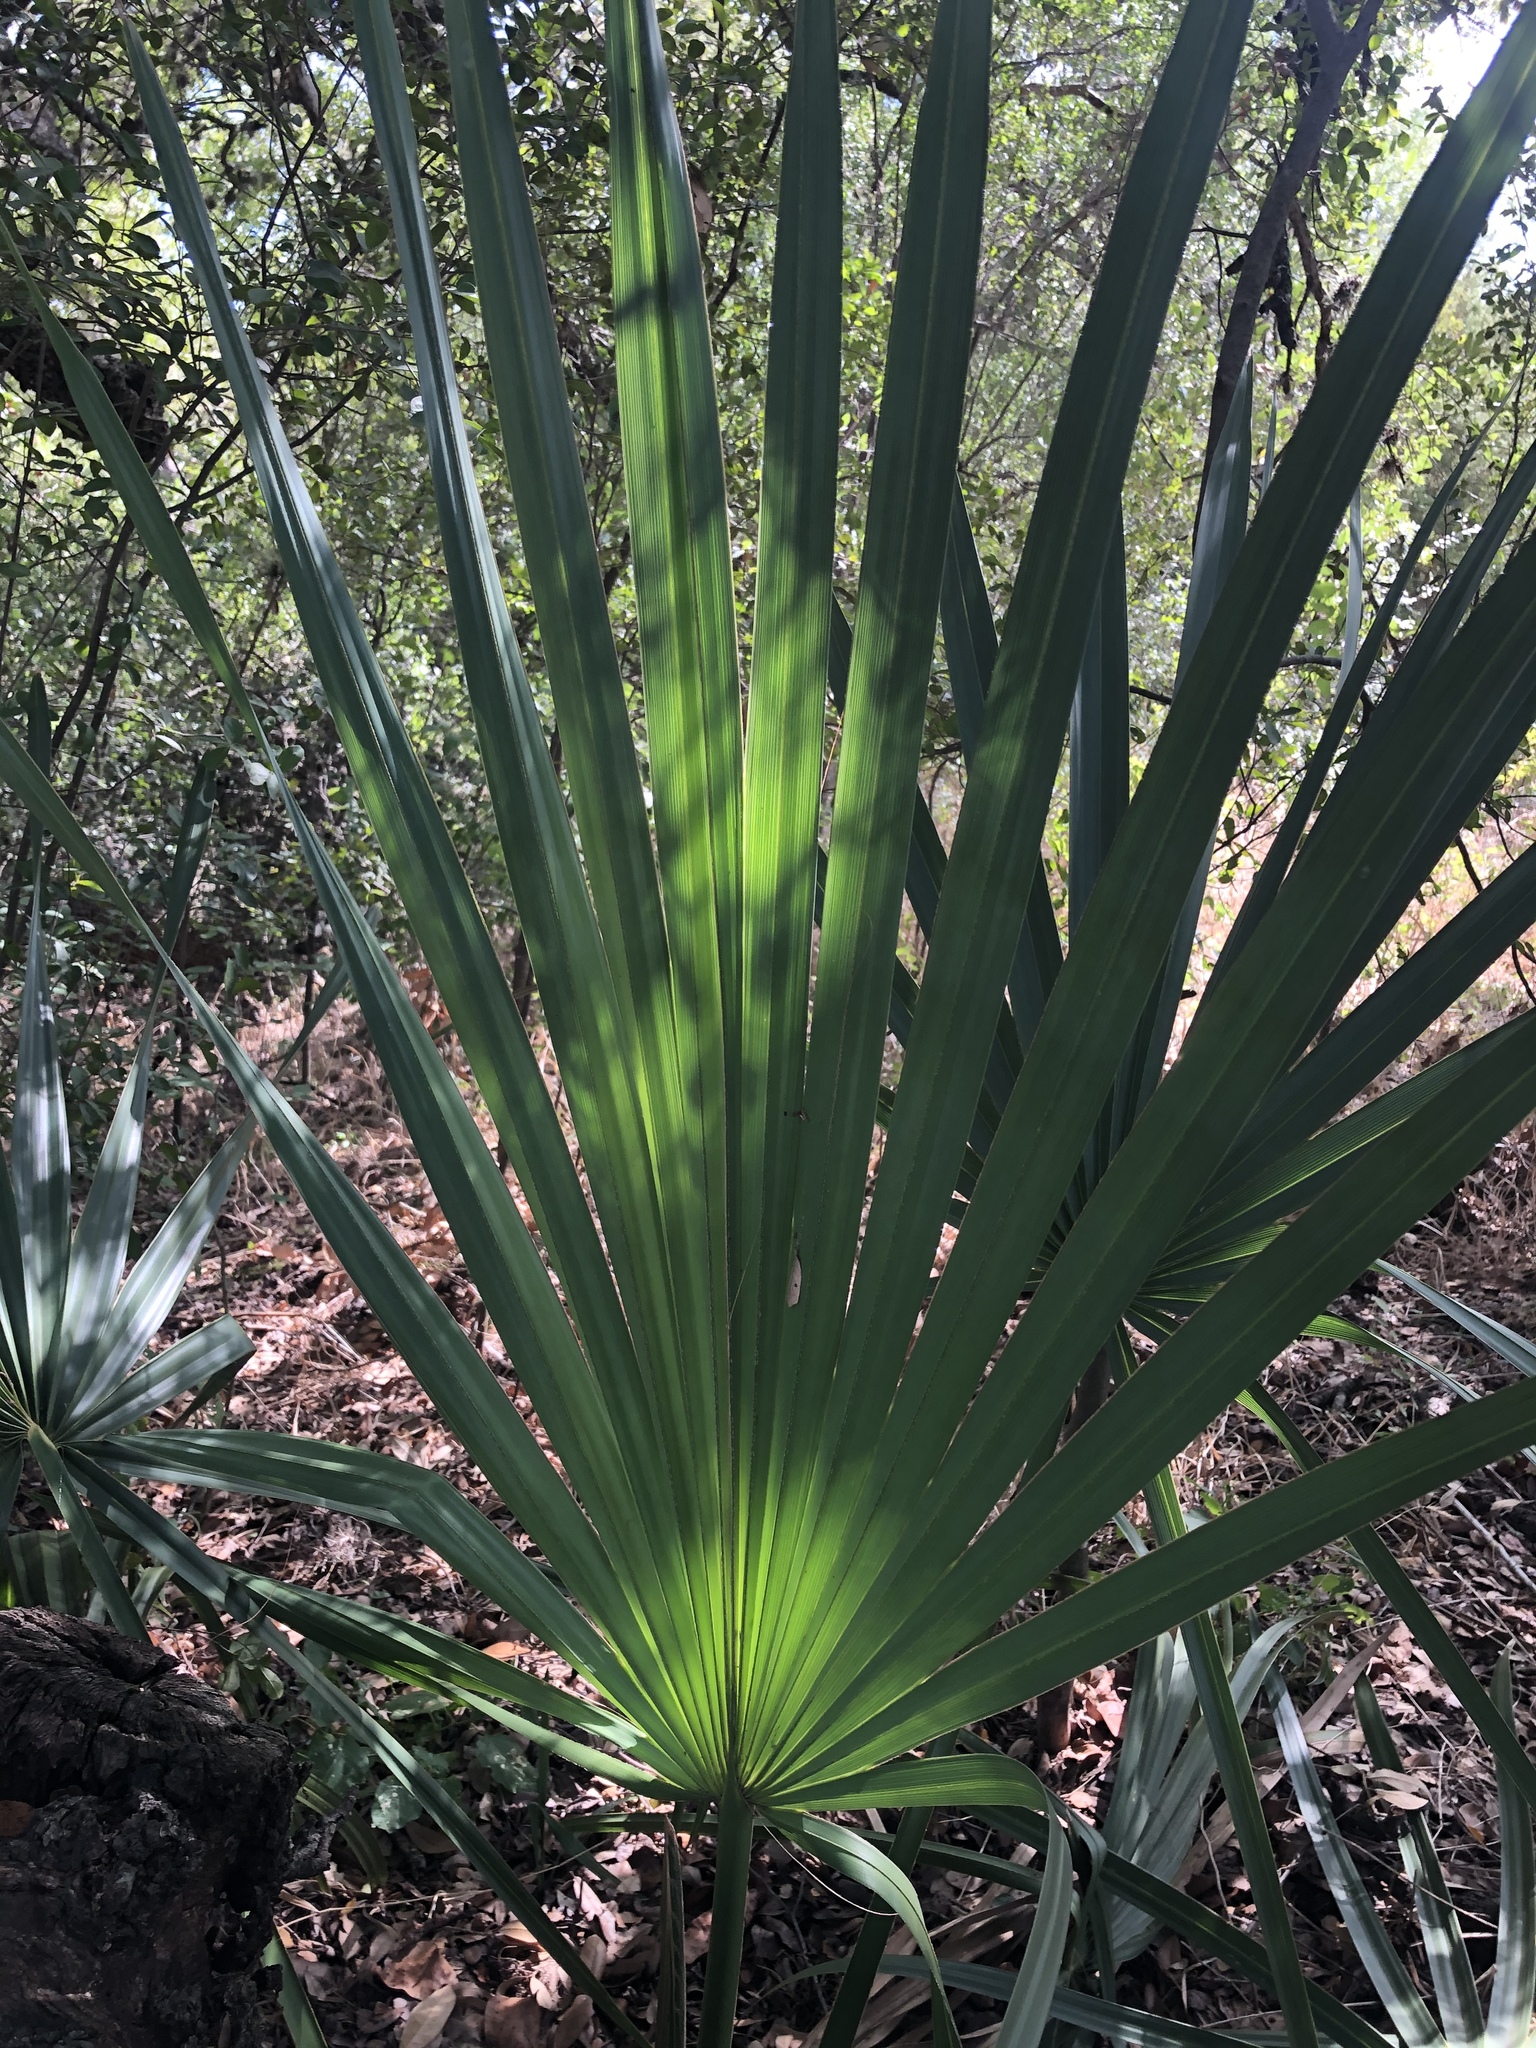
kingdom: Plantae
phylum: Tracheophyta
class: Liliopsida
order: Arecales
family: Arecaceae
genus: Sabal
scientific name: Sabal minor
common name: Dwarf palmetto
